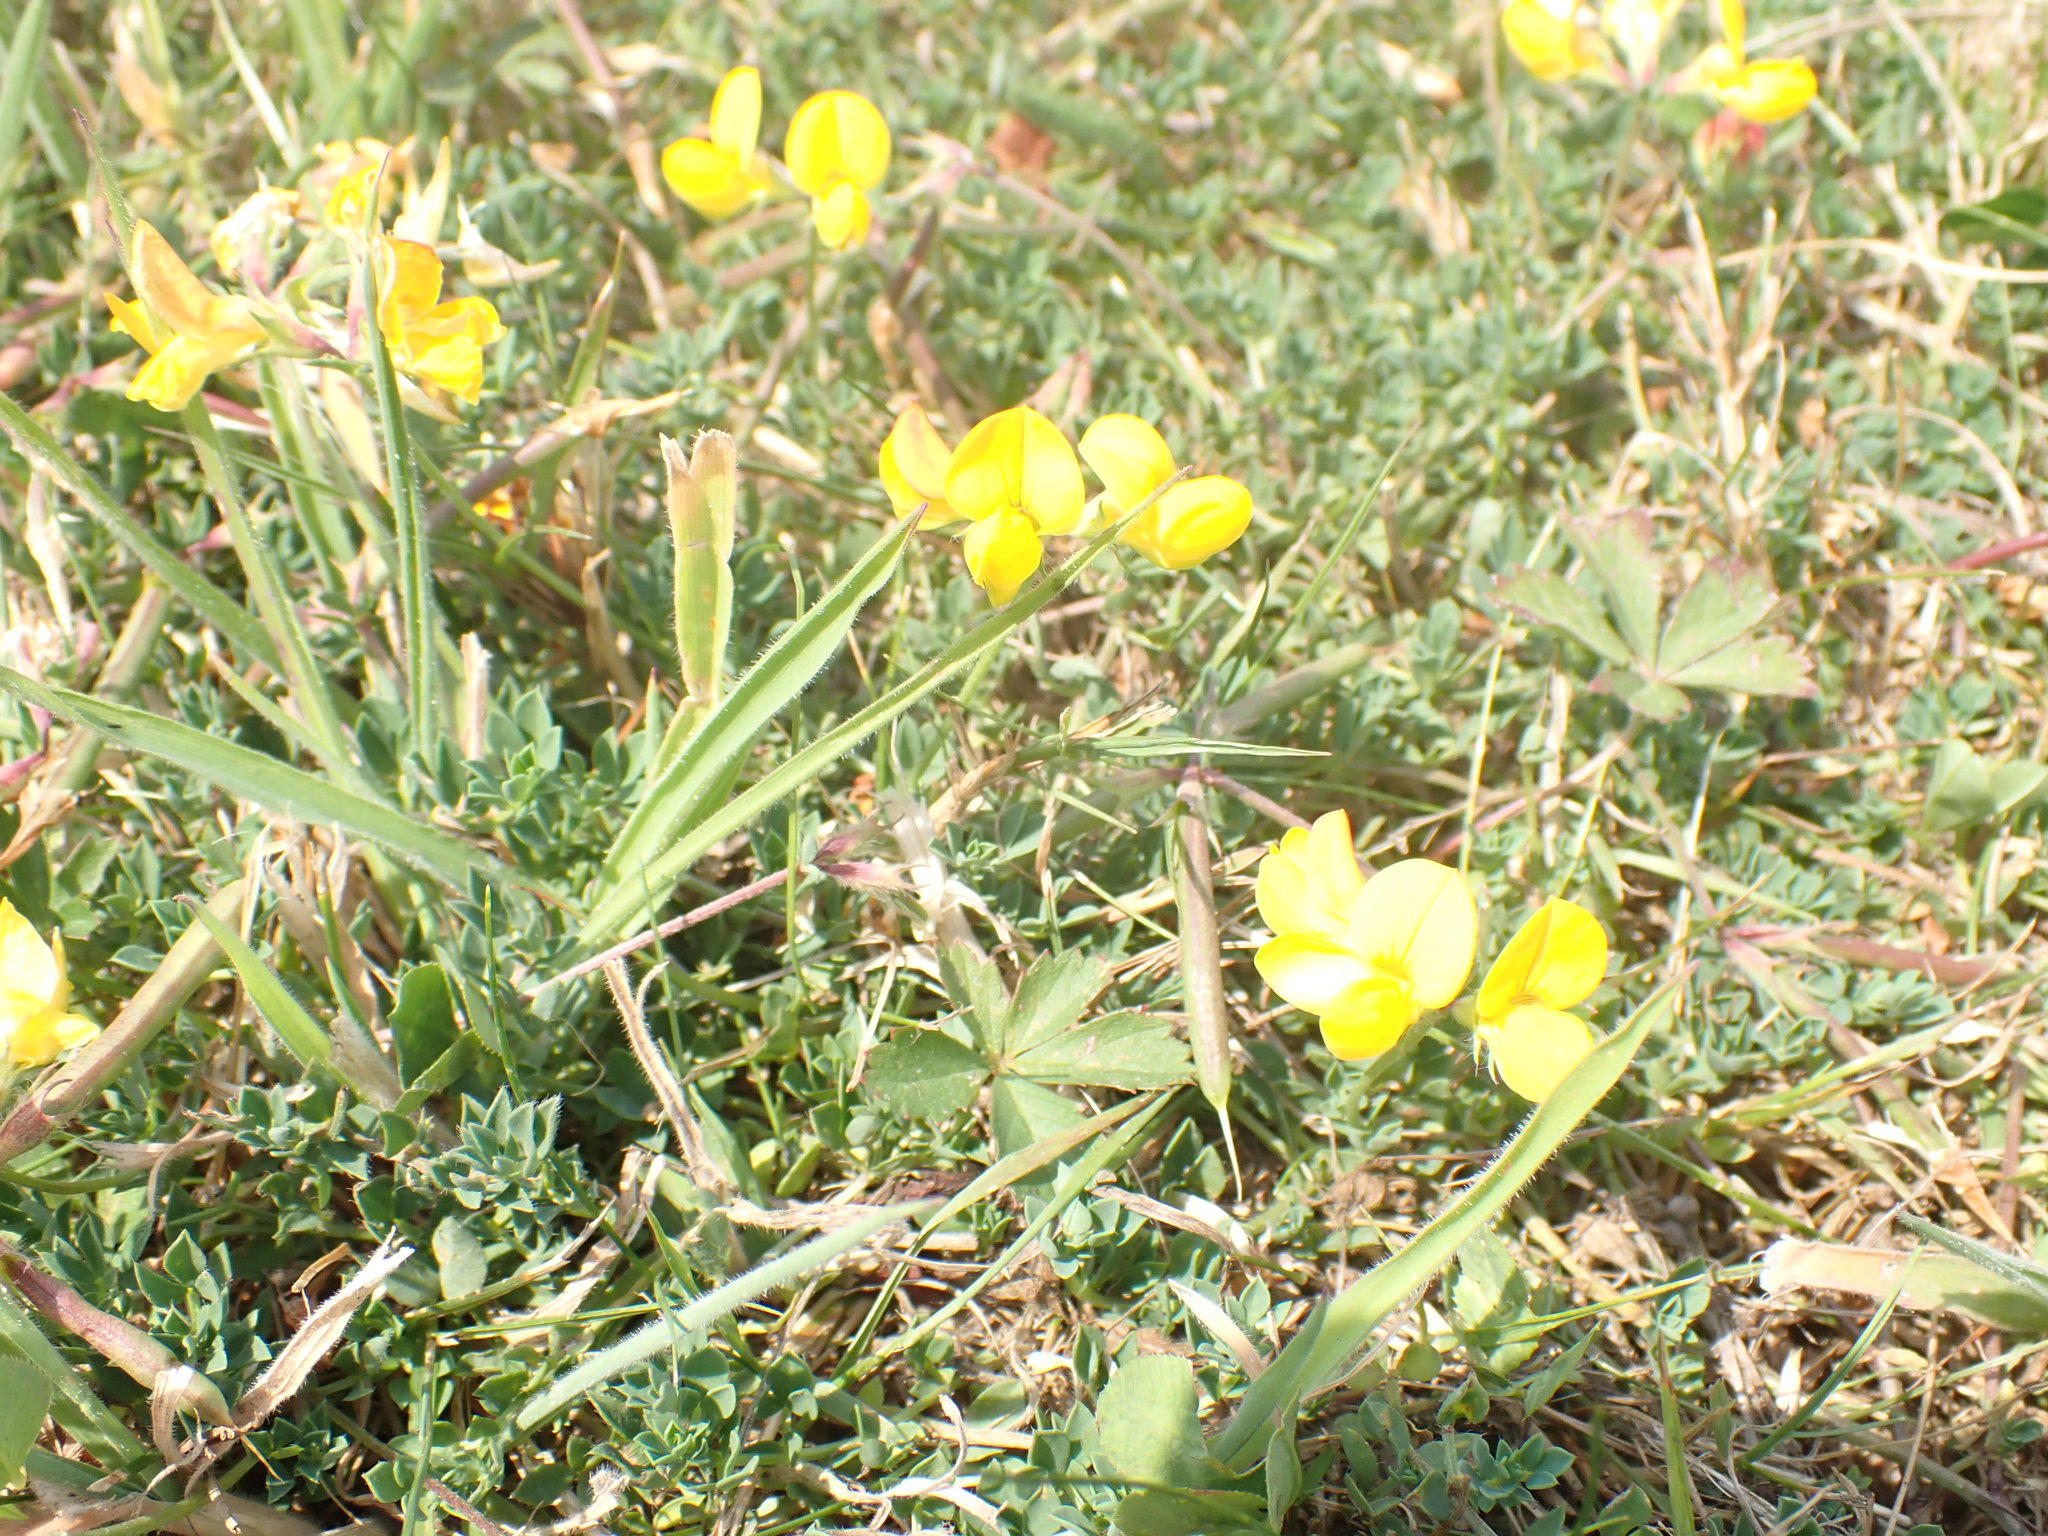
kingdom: Plantae
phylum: Tracheophyta
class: Magnoliopsida
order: Fabales
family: Fabaceae
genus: Lotus
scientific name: Lotus corniculatus
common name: Common bird's-foot-trefoil
